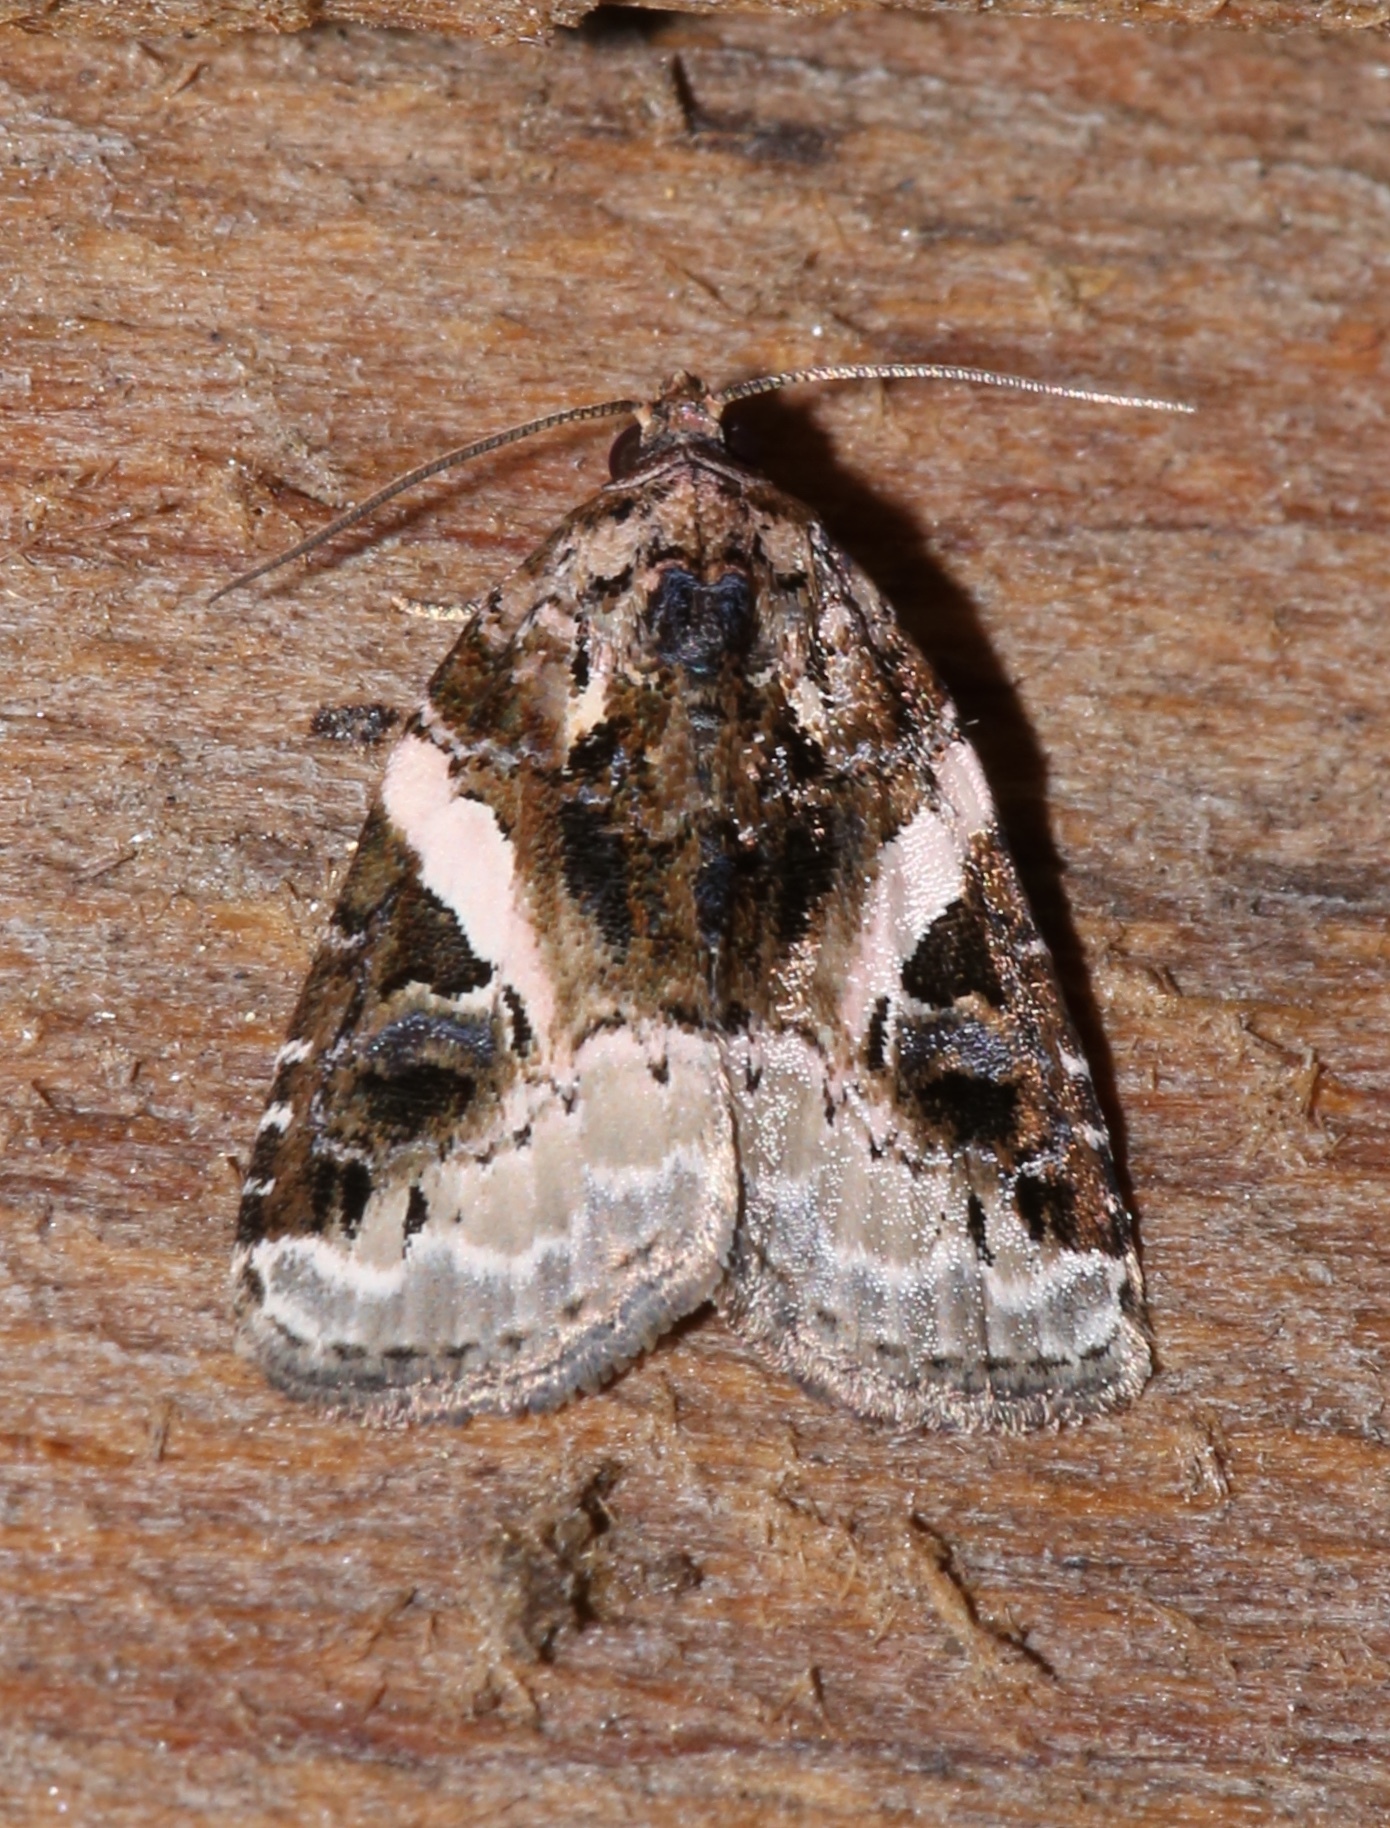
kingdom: Animalia
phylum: Arthropoda
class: Insecta
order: Lepidoptera
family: Noctuidae
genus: Pseudeustrotia
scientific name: Pseudeustrotia carneola
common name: Pink-barred lithacodia moth
